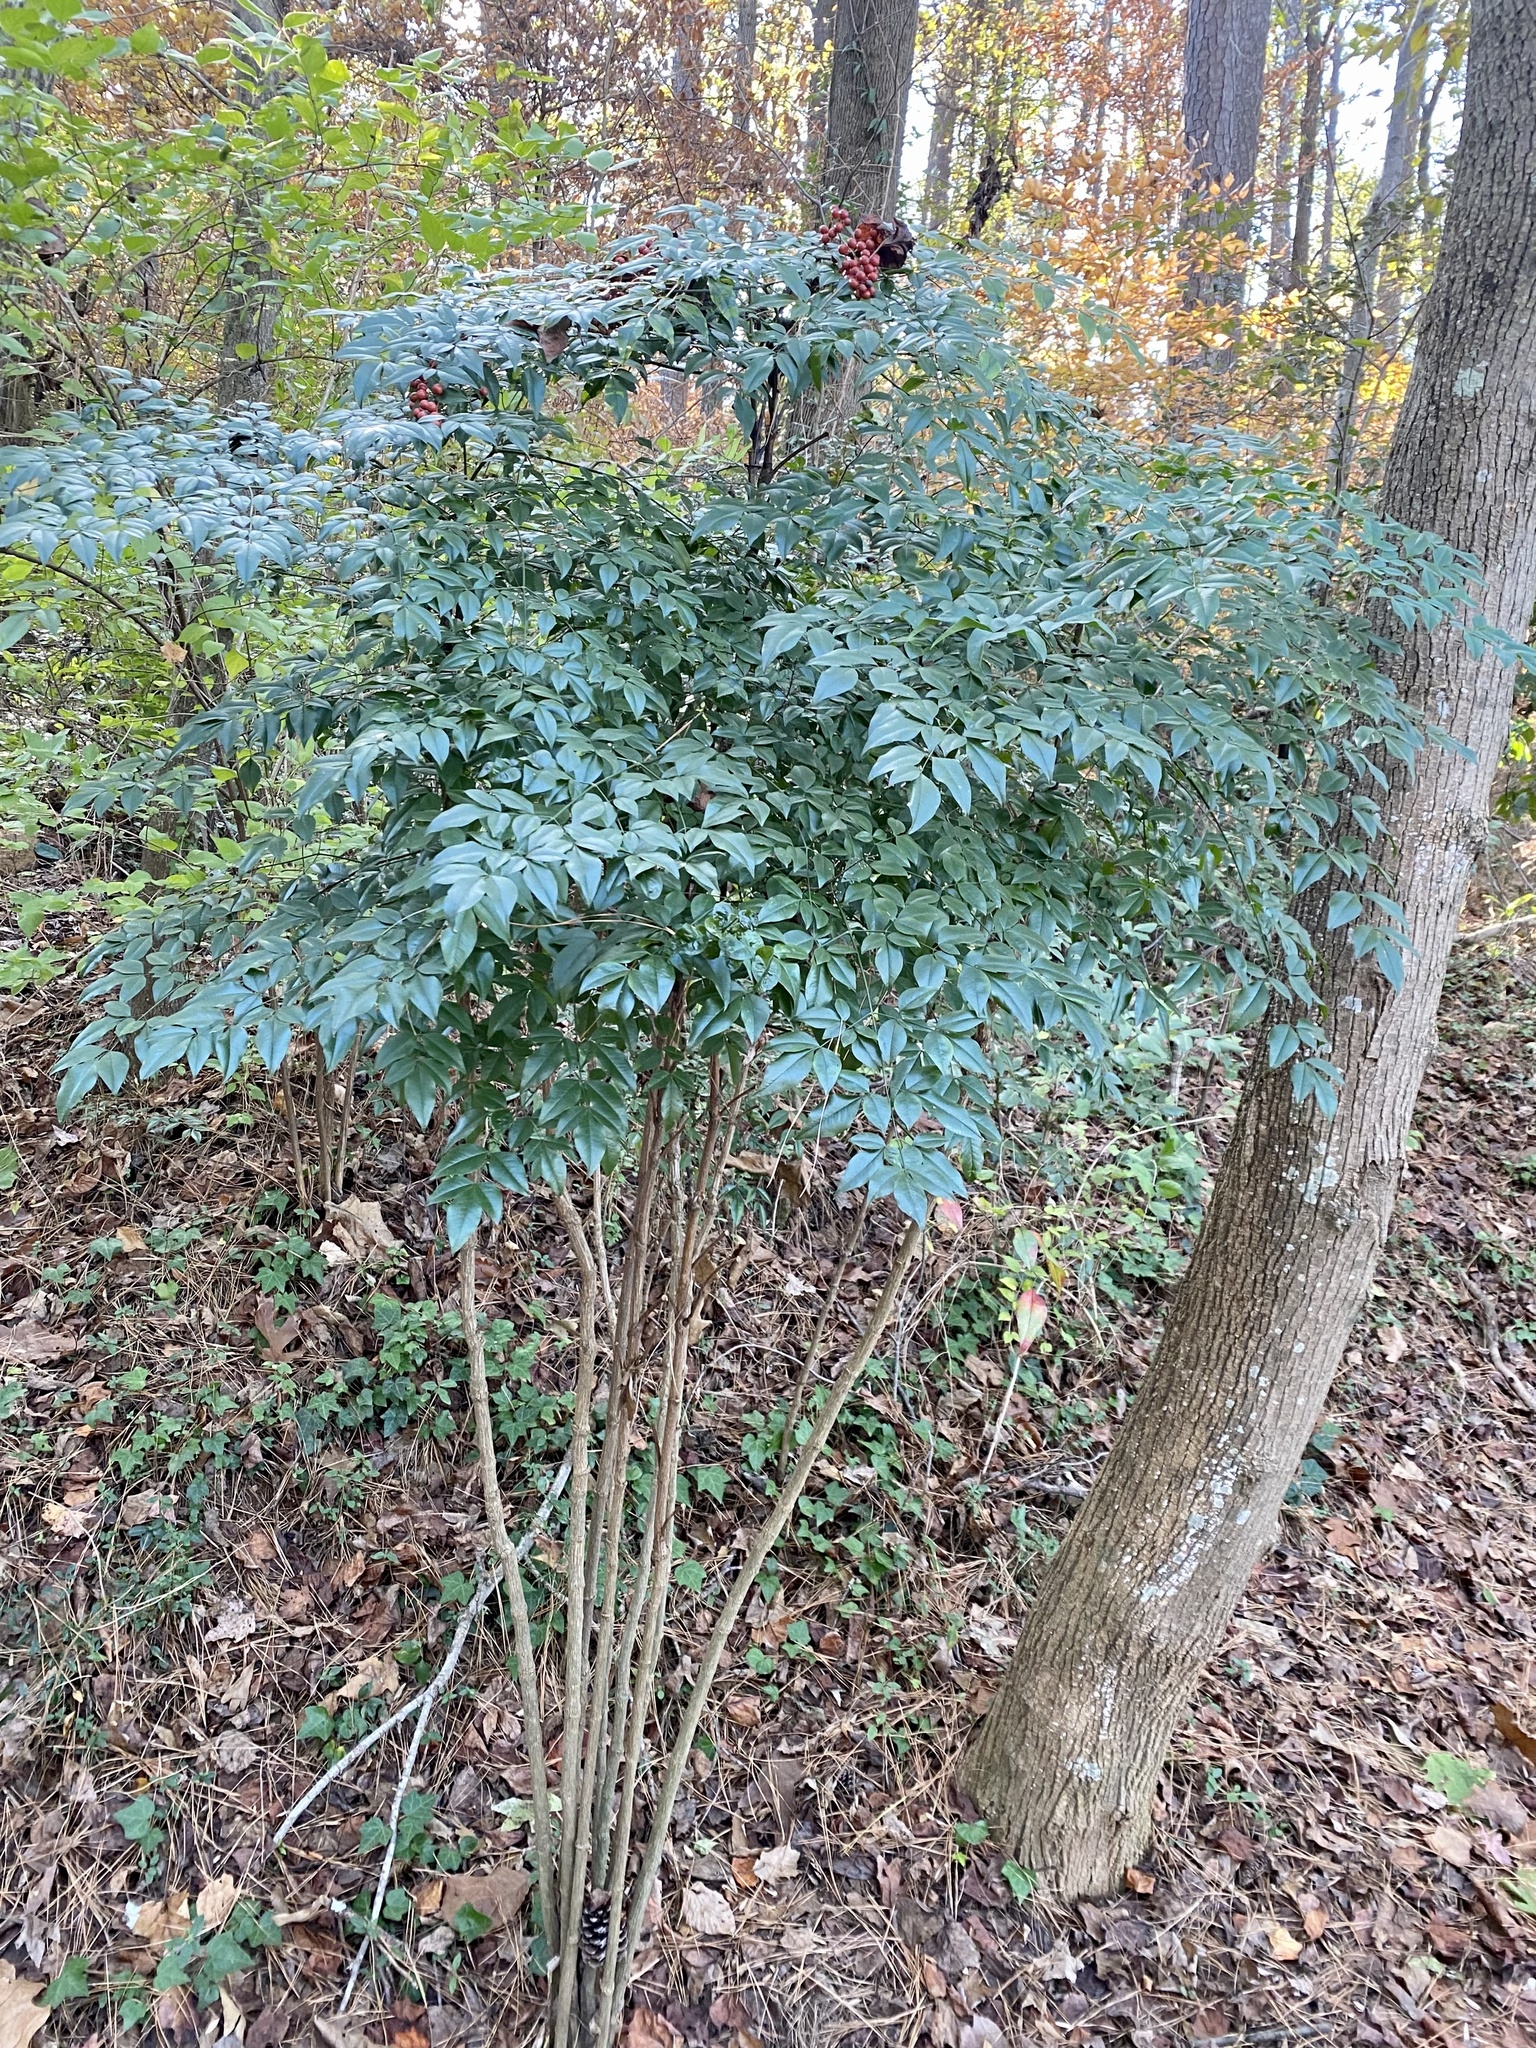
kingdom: Plantae
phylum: Tracheophyta
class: Magnoliopsida
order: Ranunculales
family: Berberidaceae
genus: Nandina
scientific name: Nandina domestica
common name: Sacred bamboo
